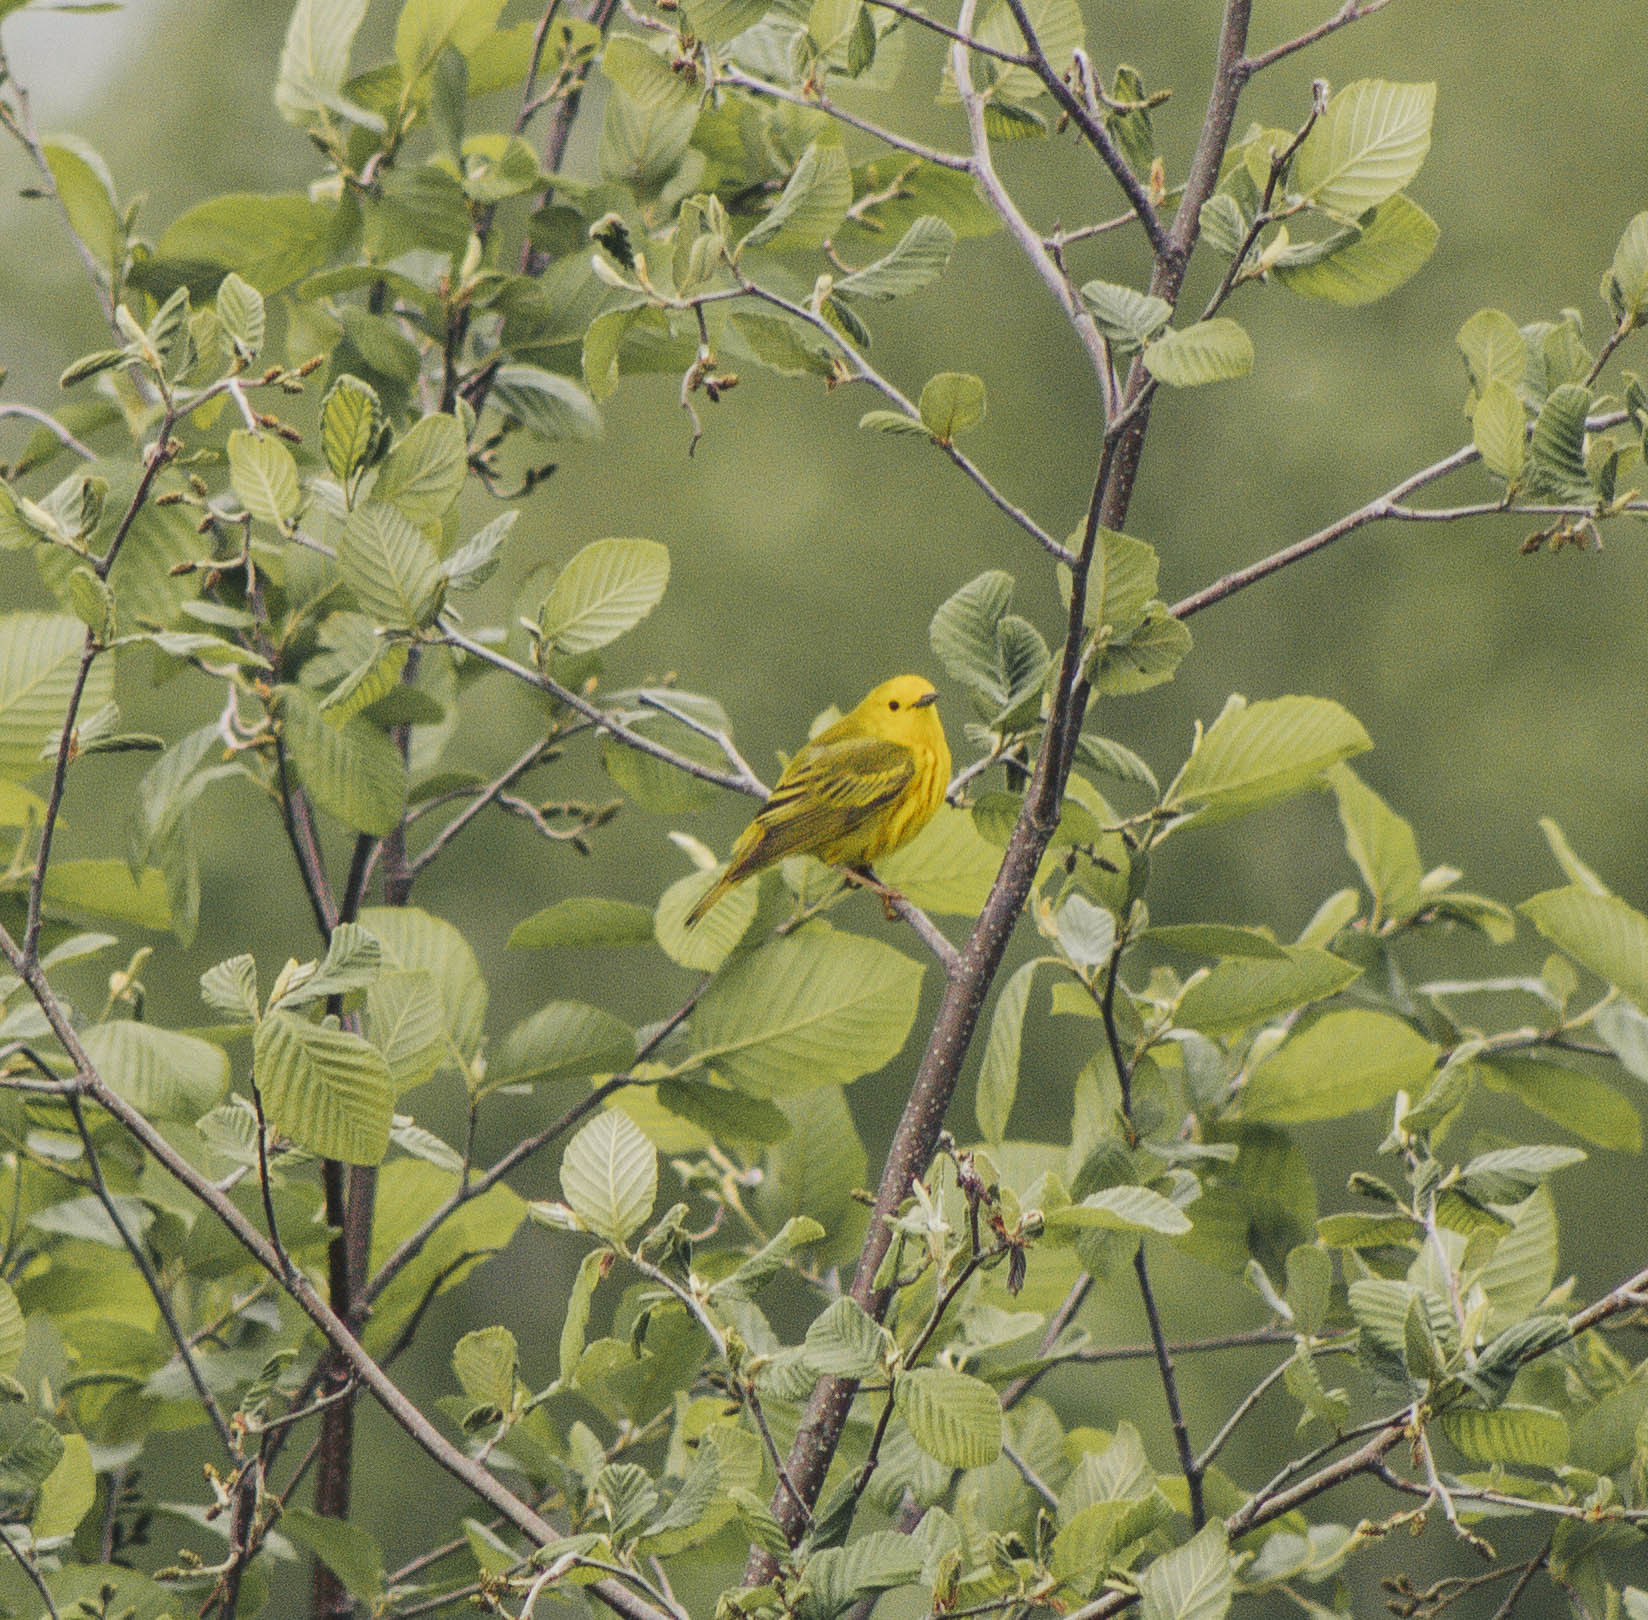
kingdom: Animalia
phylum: Chordata
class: Aves
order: Passeriformes
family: Parulidae
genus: Setophaga
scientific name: Setophaga petechia
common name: Yellow warbler
